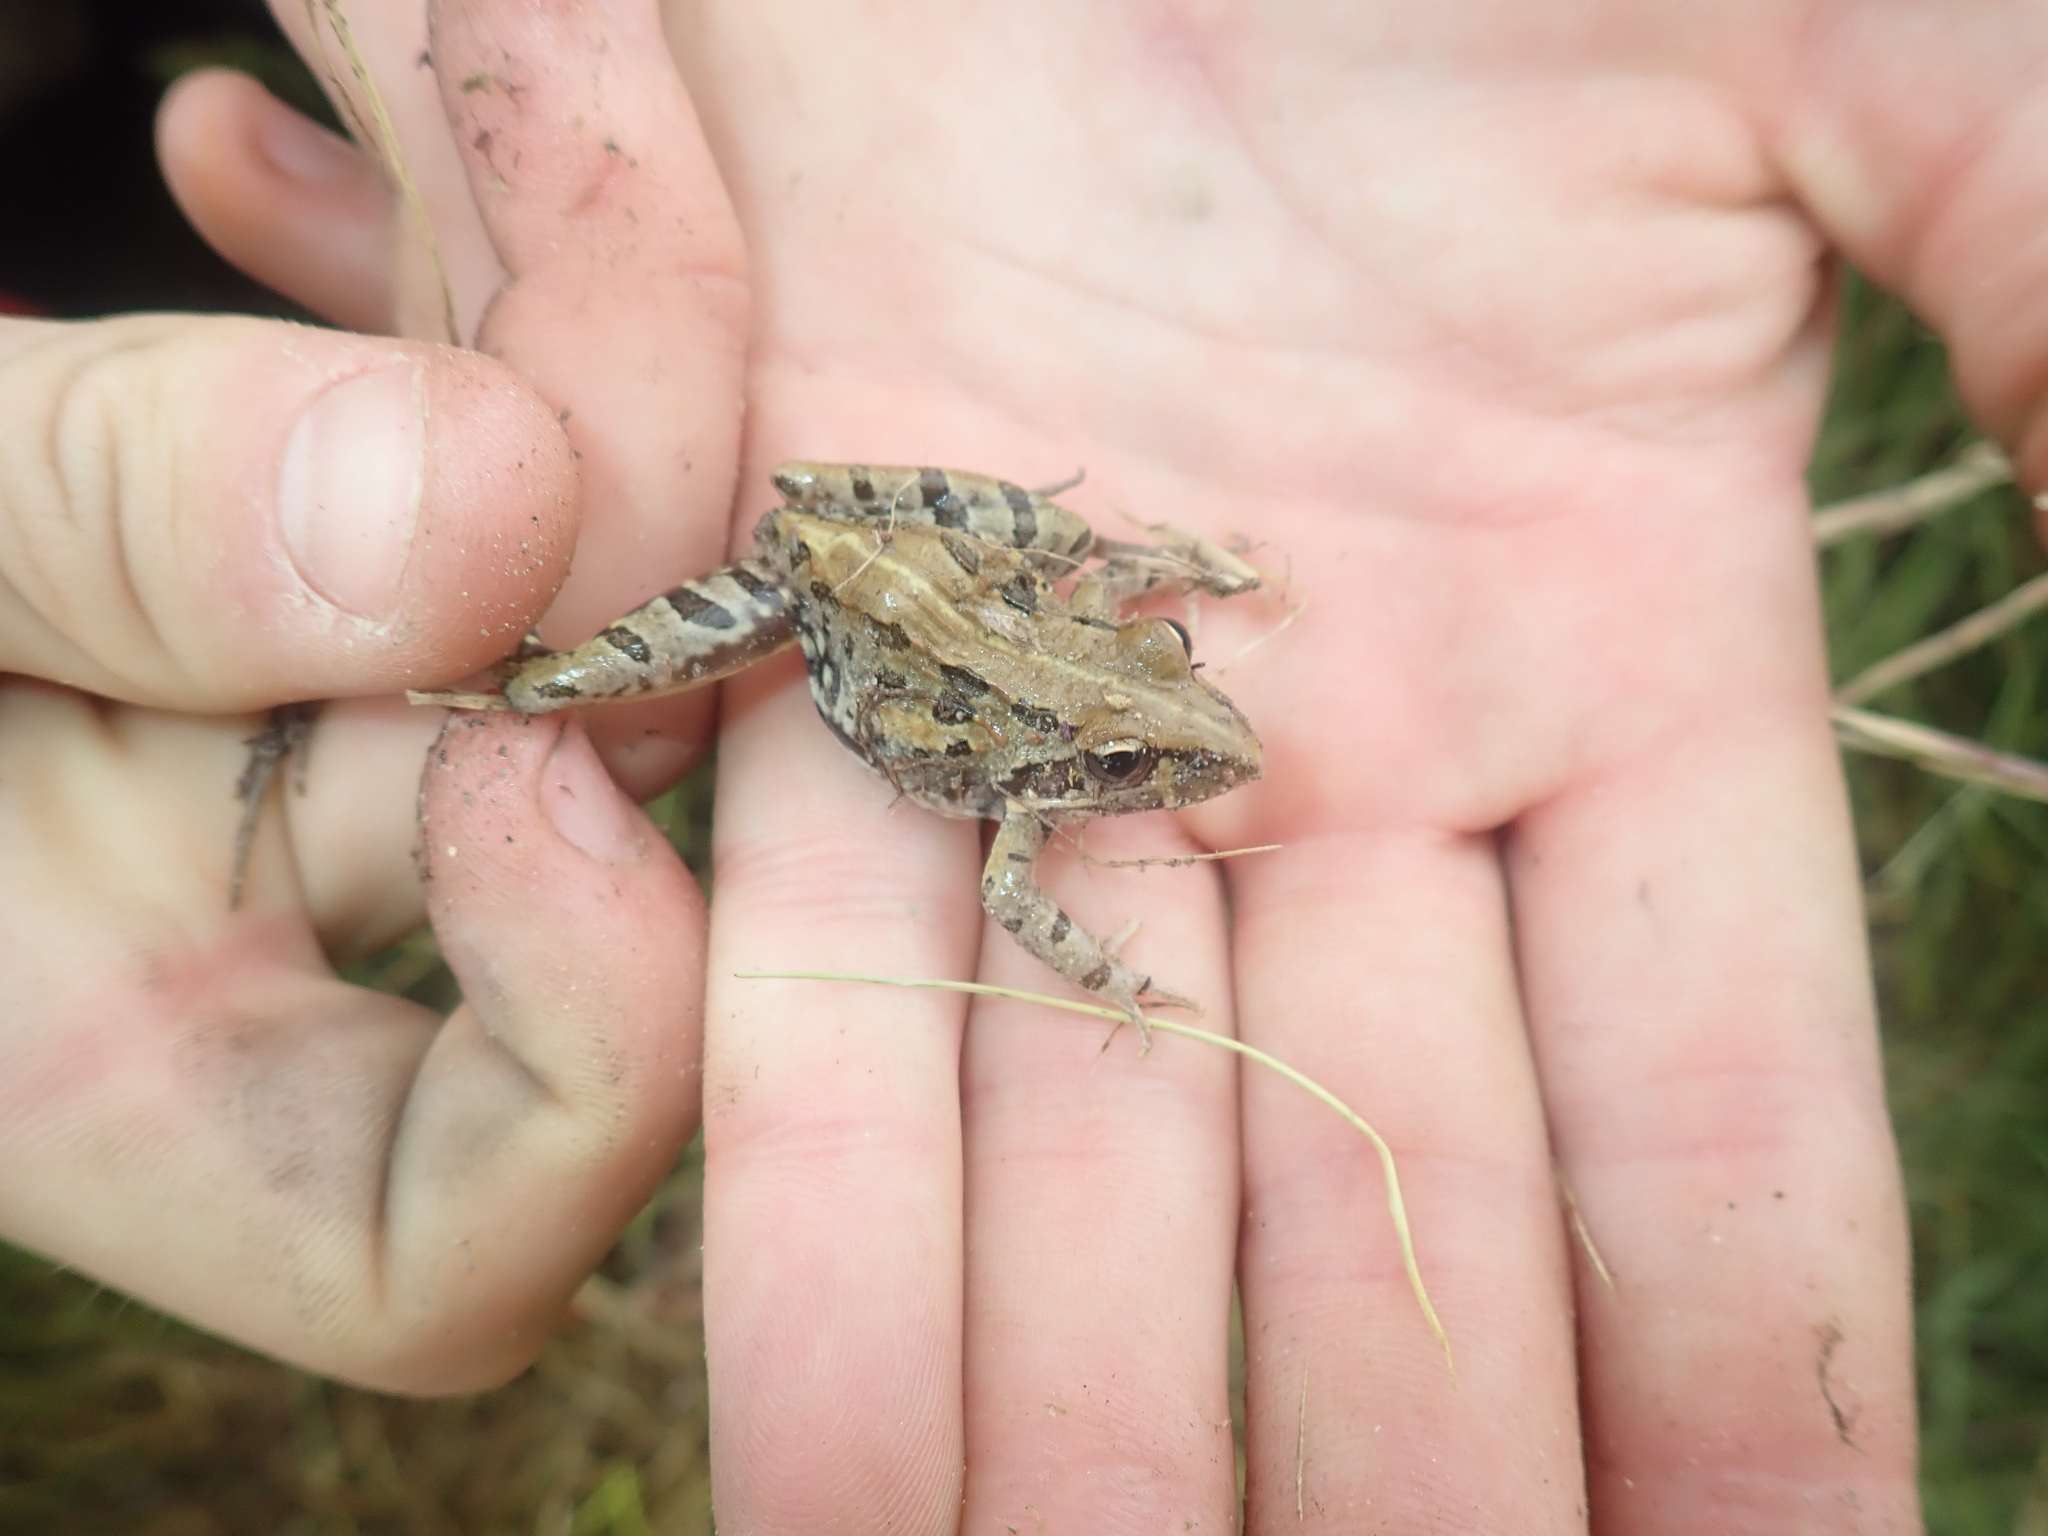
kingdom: Animalia
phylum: Chordata
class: Amphibia
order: Anura
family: Pyxicephalidae
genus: Strongylopus
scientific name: Strongylopus grayii
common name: Gray's stream frog
